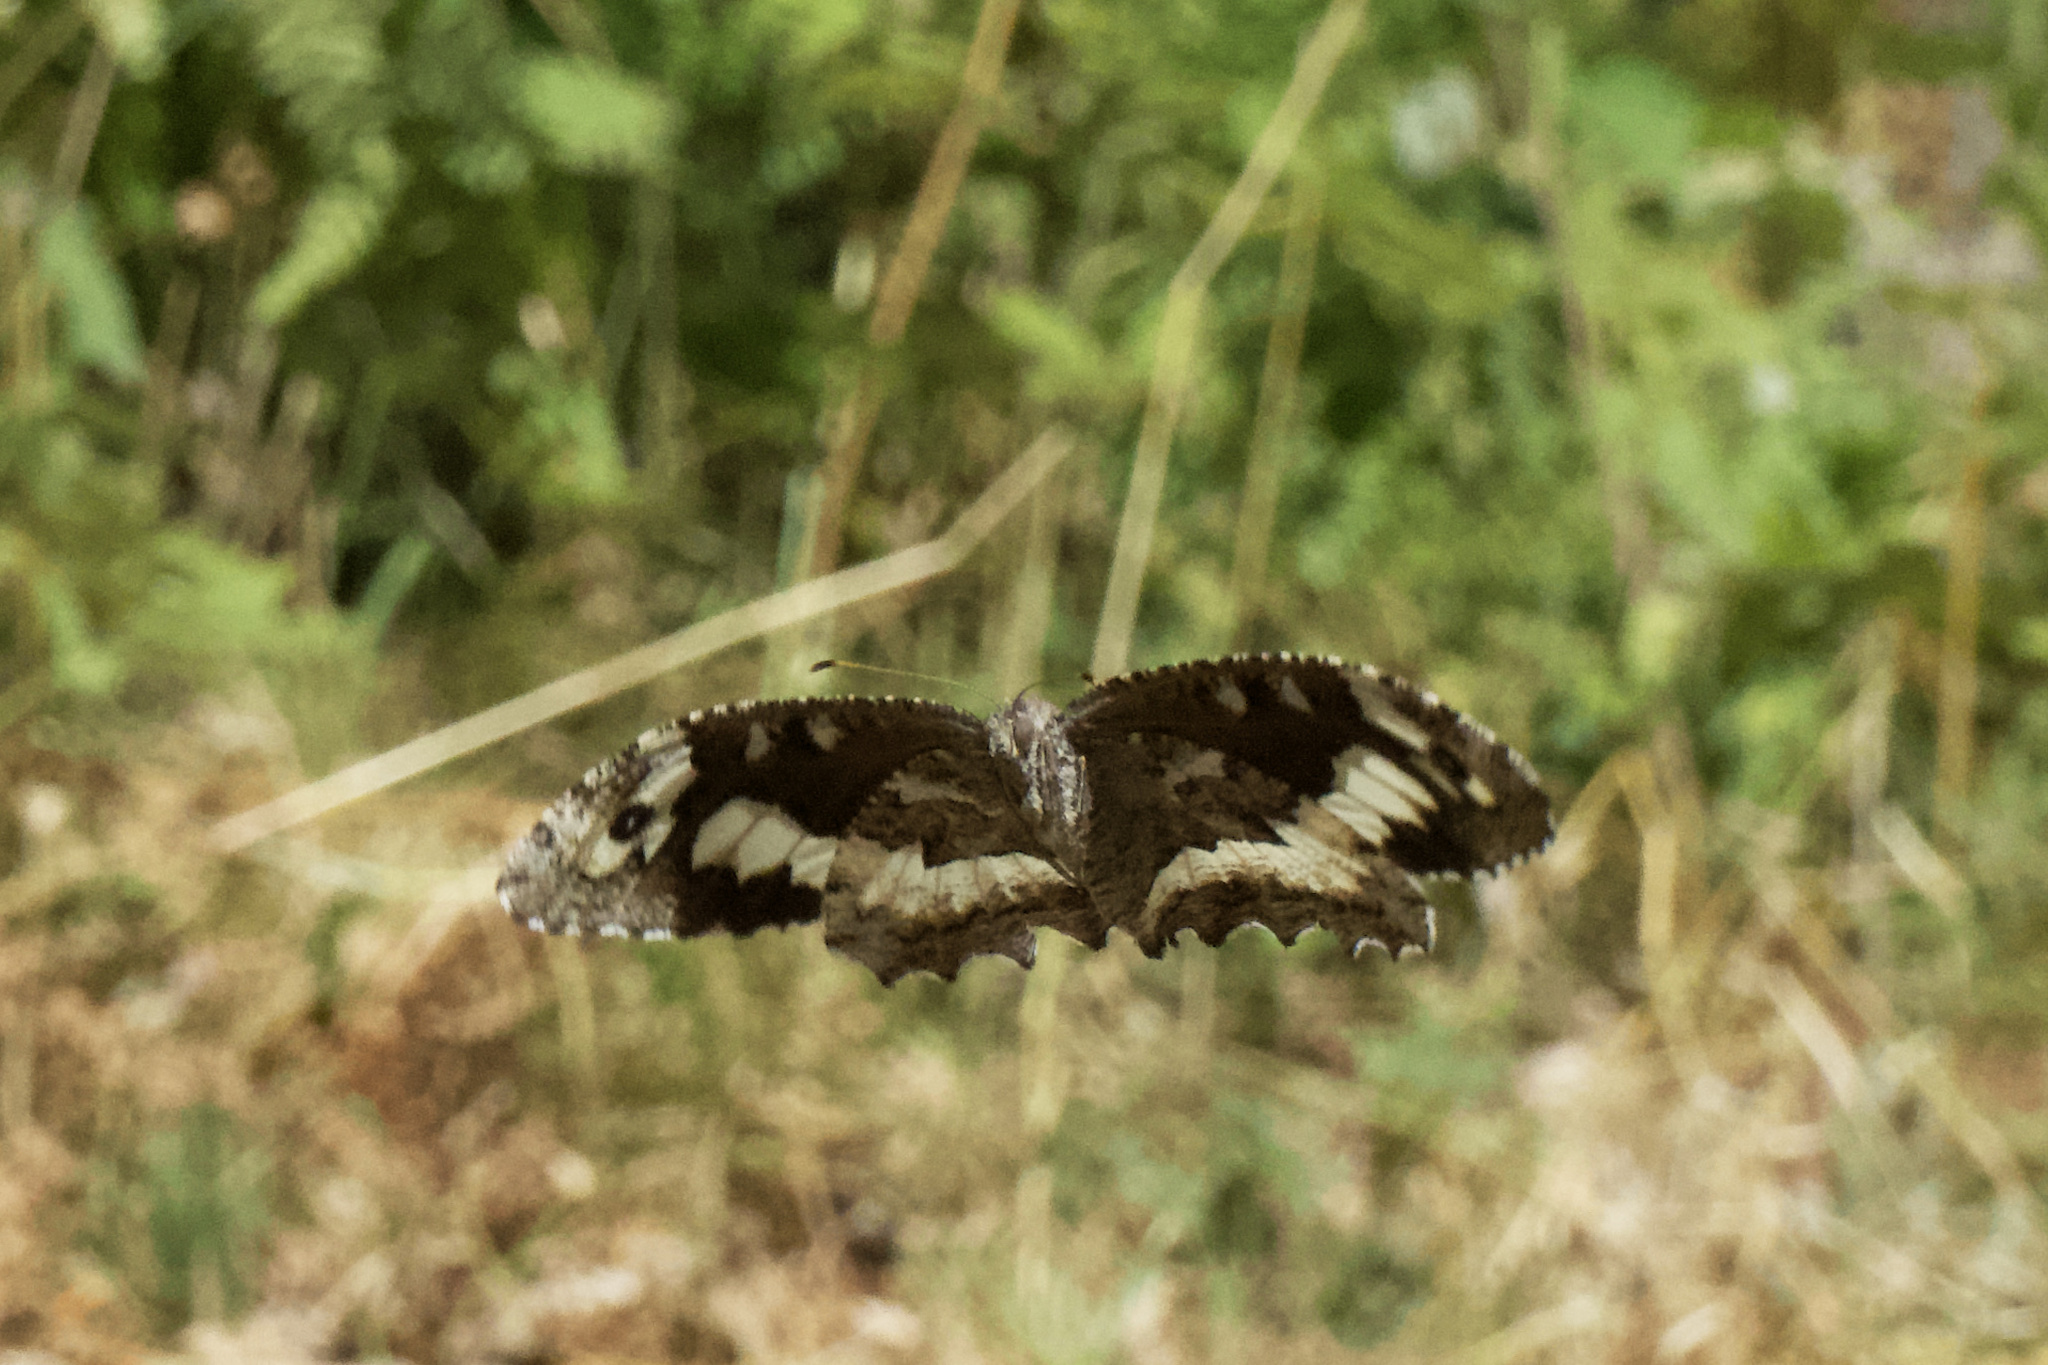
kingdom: Animalia
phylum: Arthropoda
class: Insecta
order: Lepidoptera
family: Lycaenidae
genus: Loweia
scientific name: Loweia tityrus
